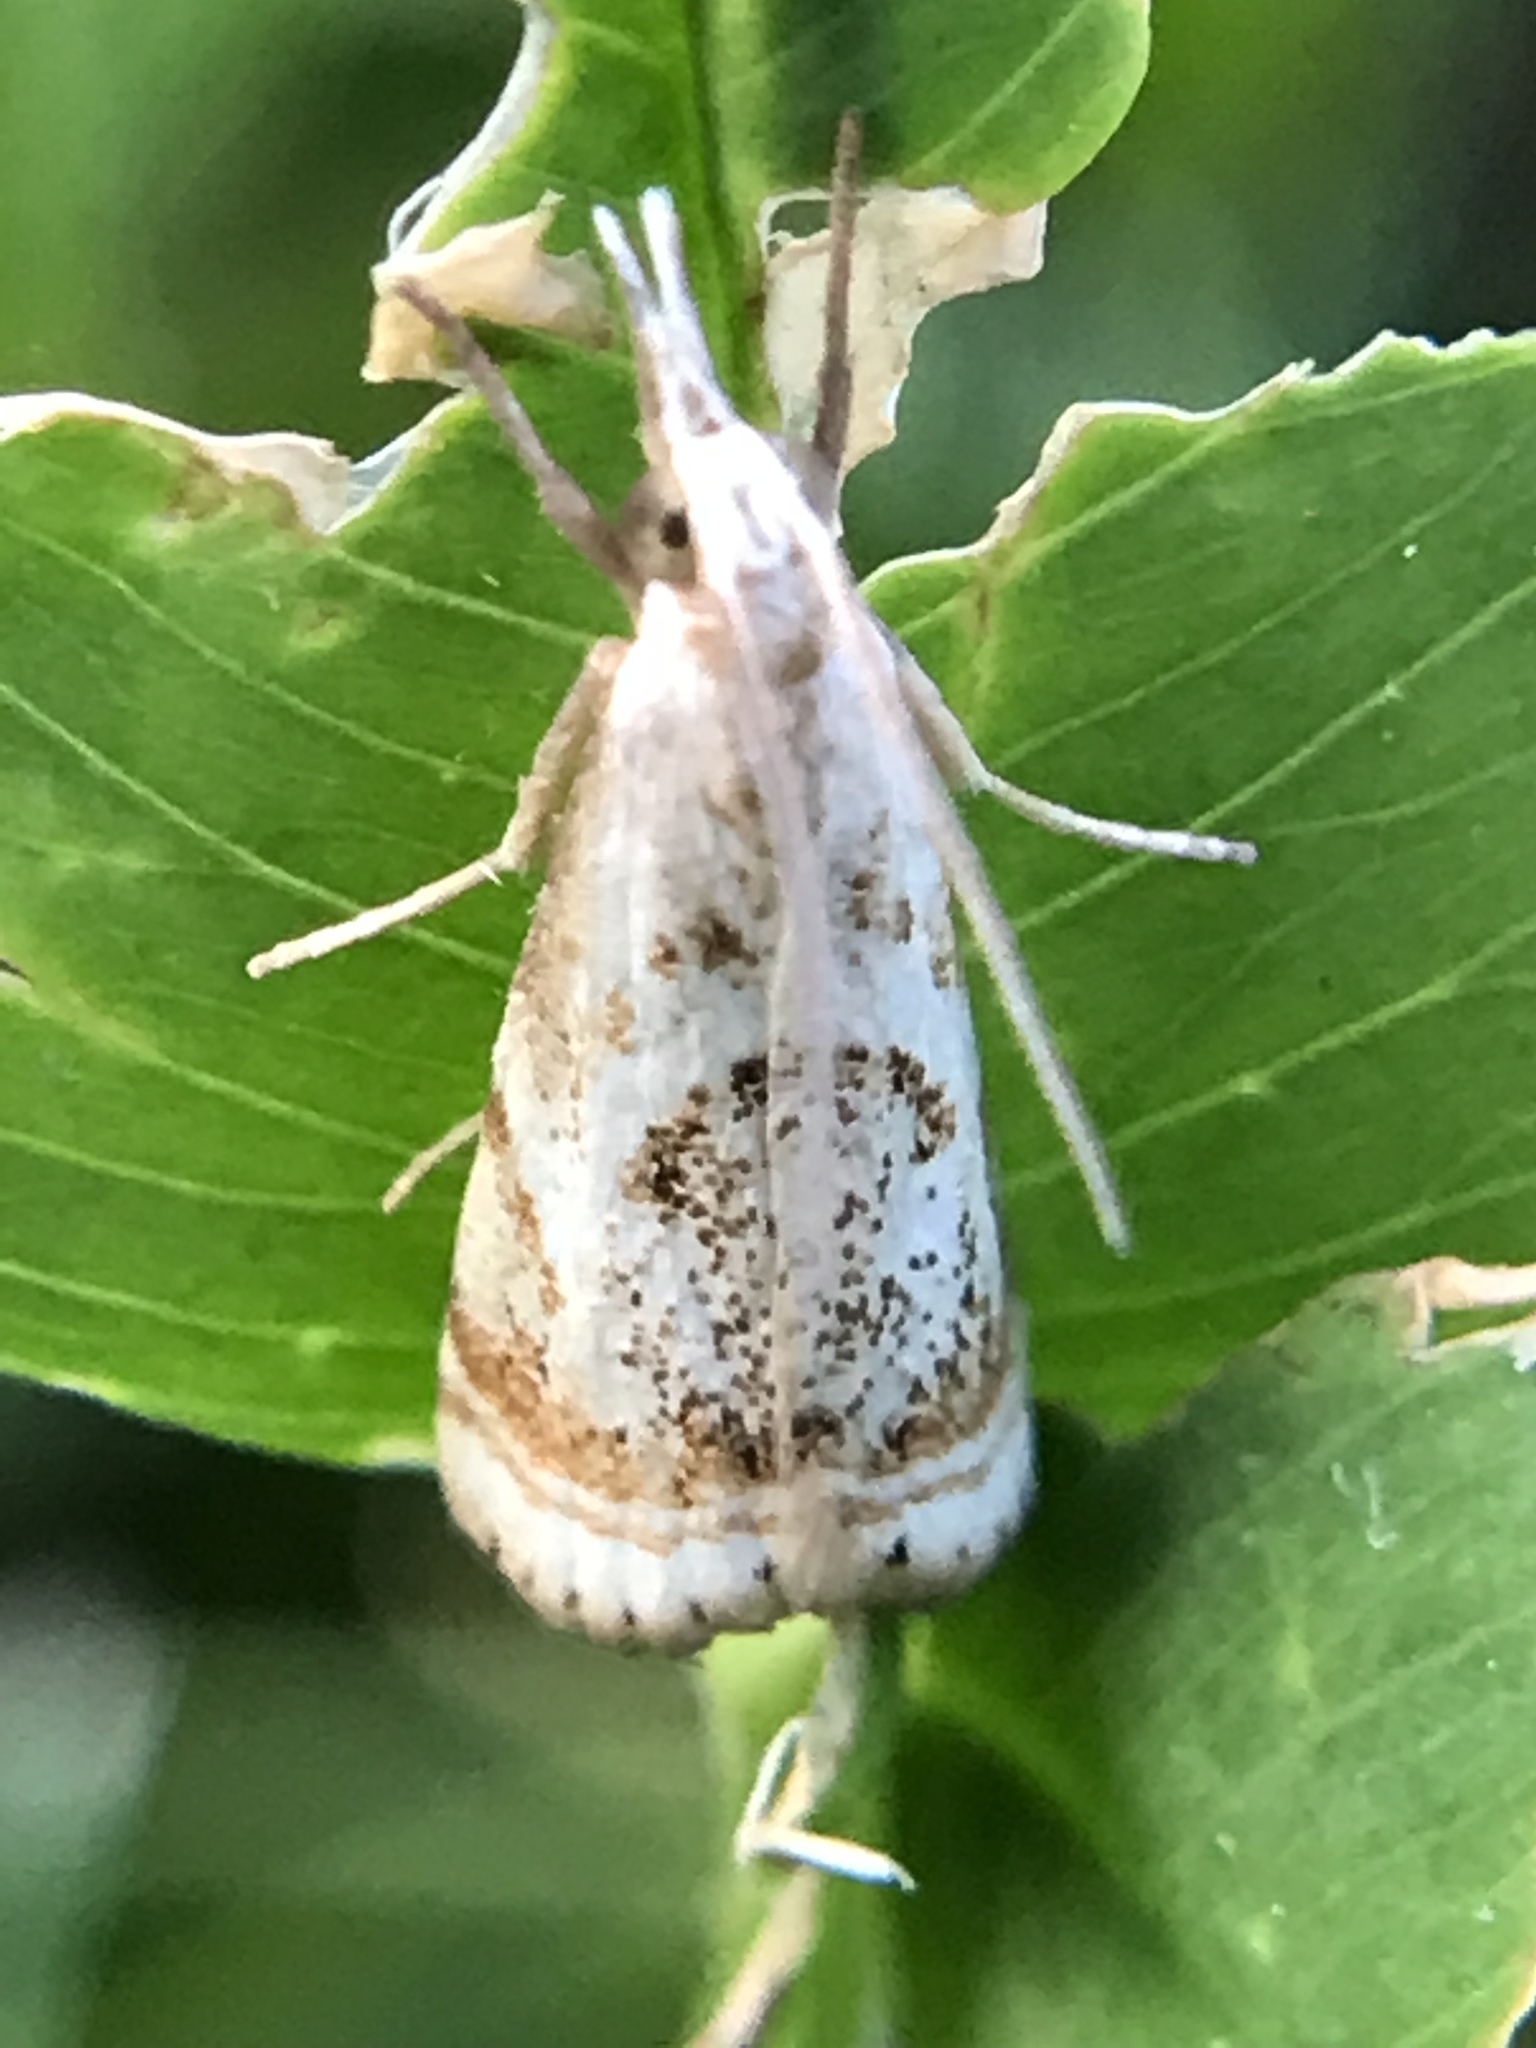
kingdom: Animalia
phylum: Arthropoda
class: Insecta
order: Lepidoptera
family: Crambidae
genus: Microcrambus
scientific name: Microcrambus elegans
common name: Elegant grass-veneer
